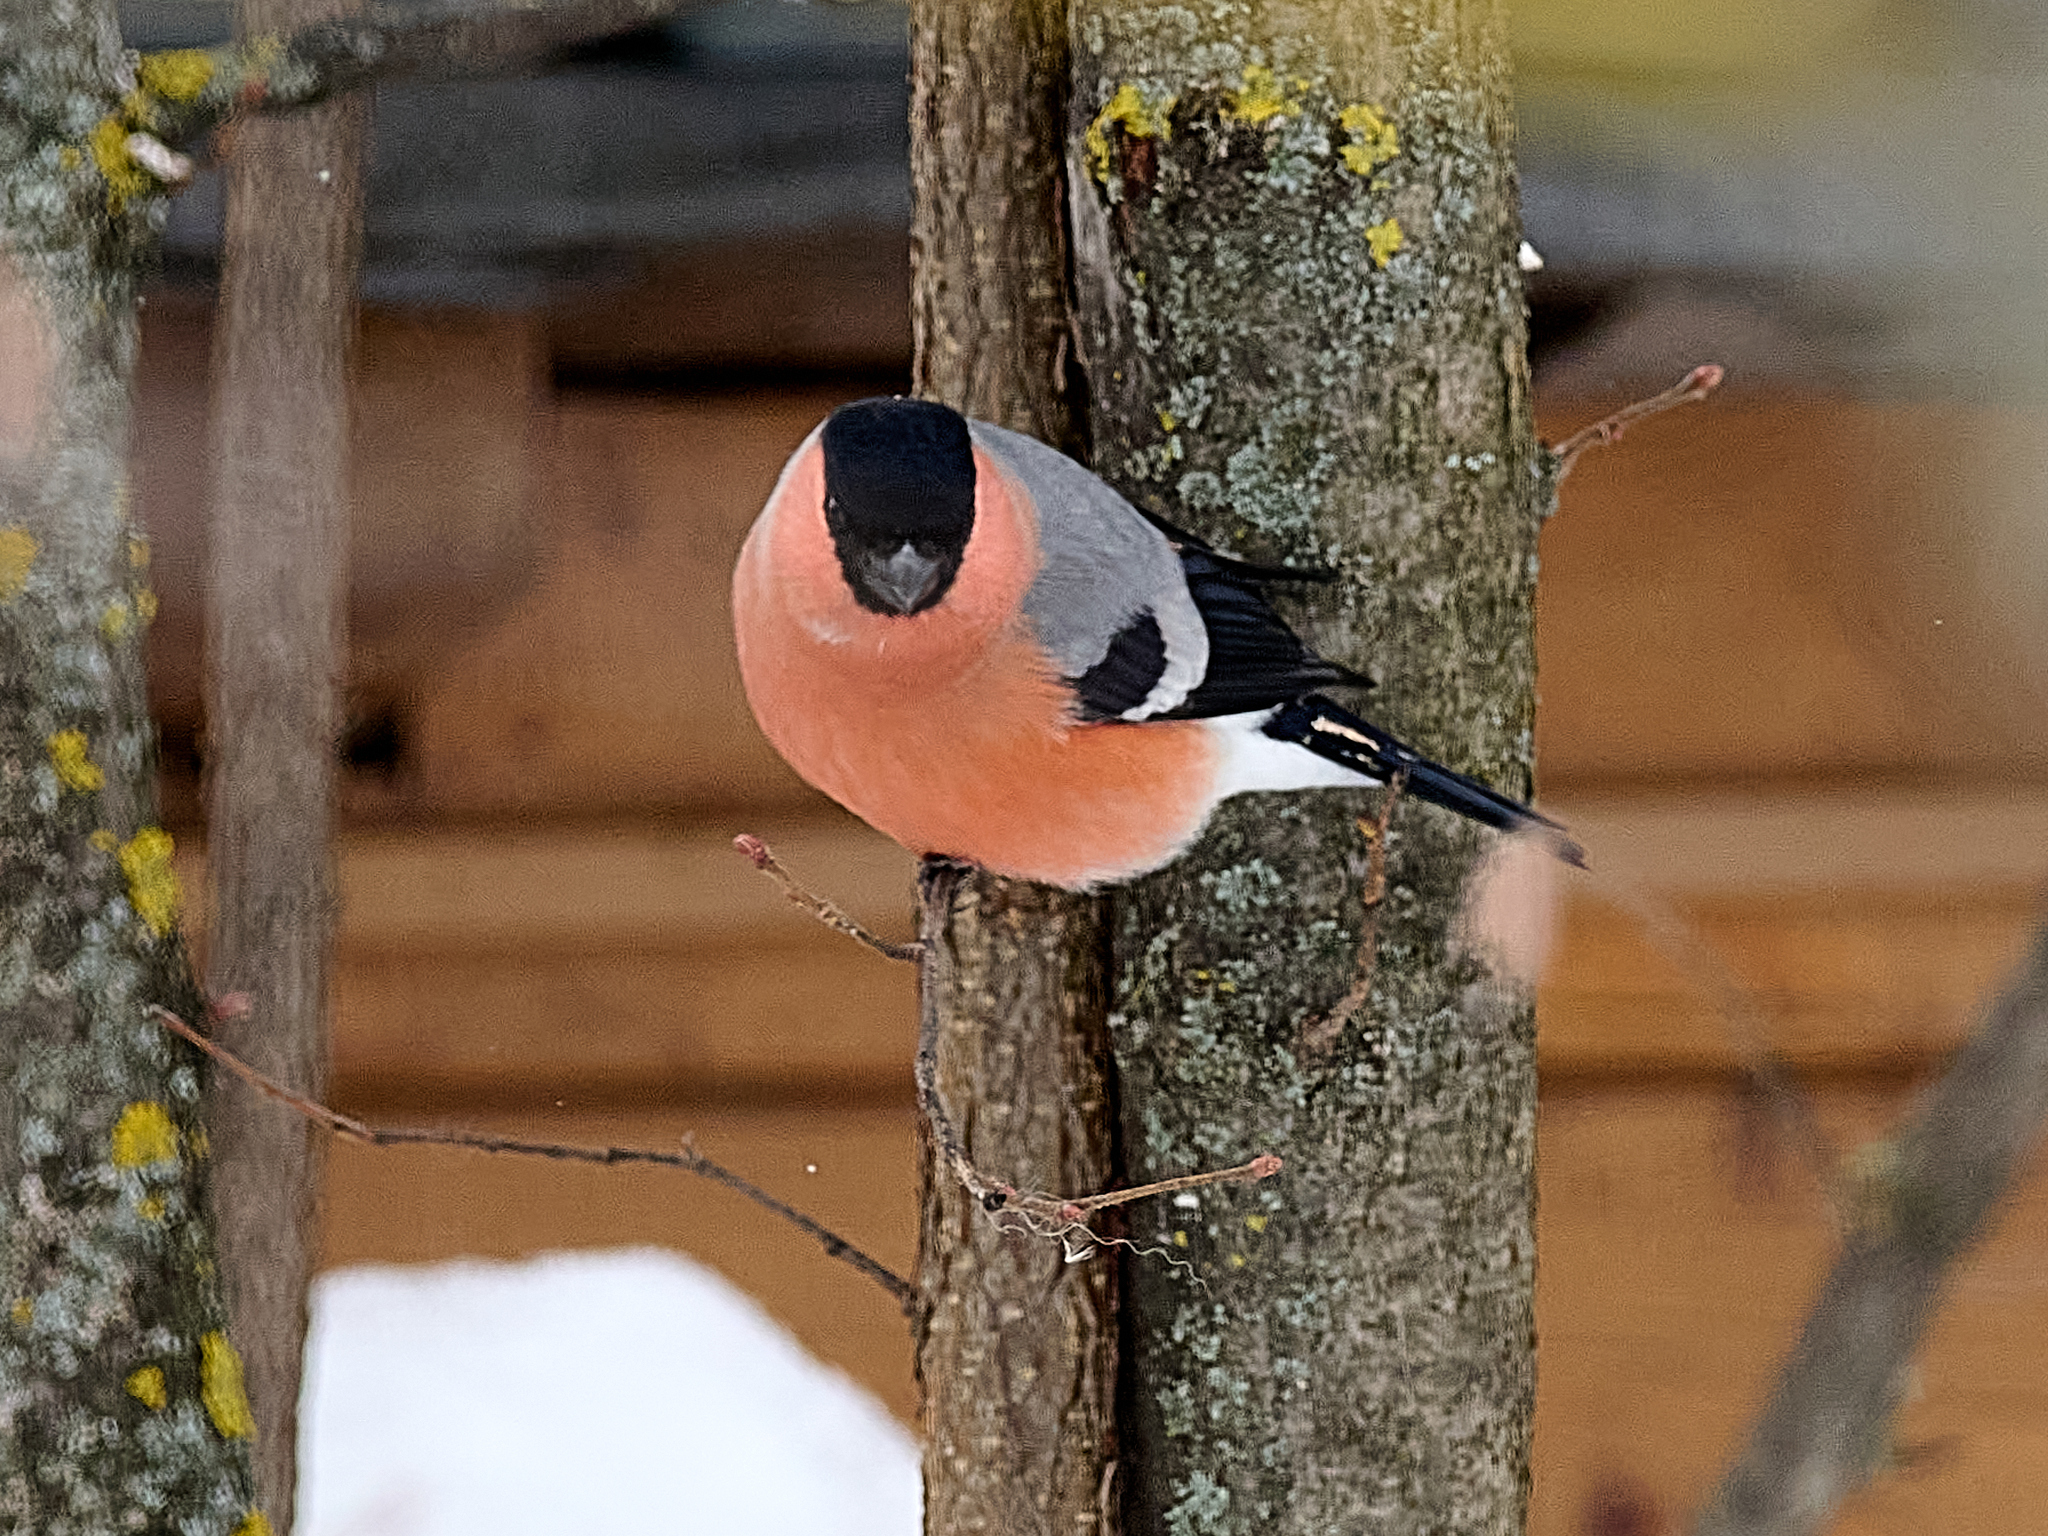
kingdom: Animalia
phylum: Chordata
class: Aves
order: Passeriformes
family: Fringillidae
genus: Pyrrhula
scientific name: Pyrrhula pyrrhula
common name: Eurasian bullfinch
